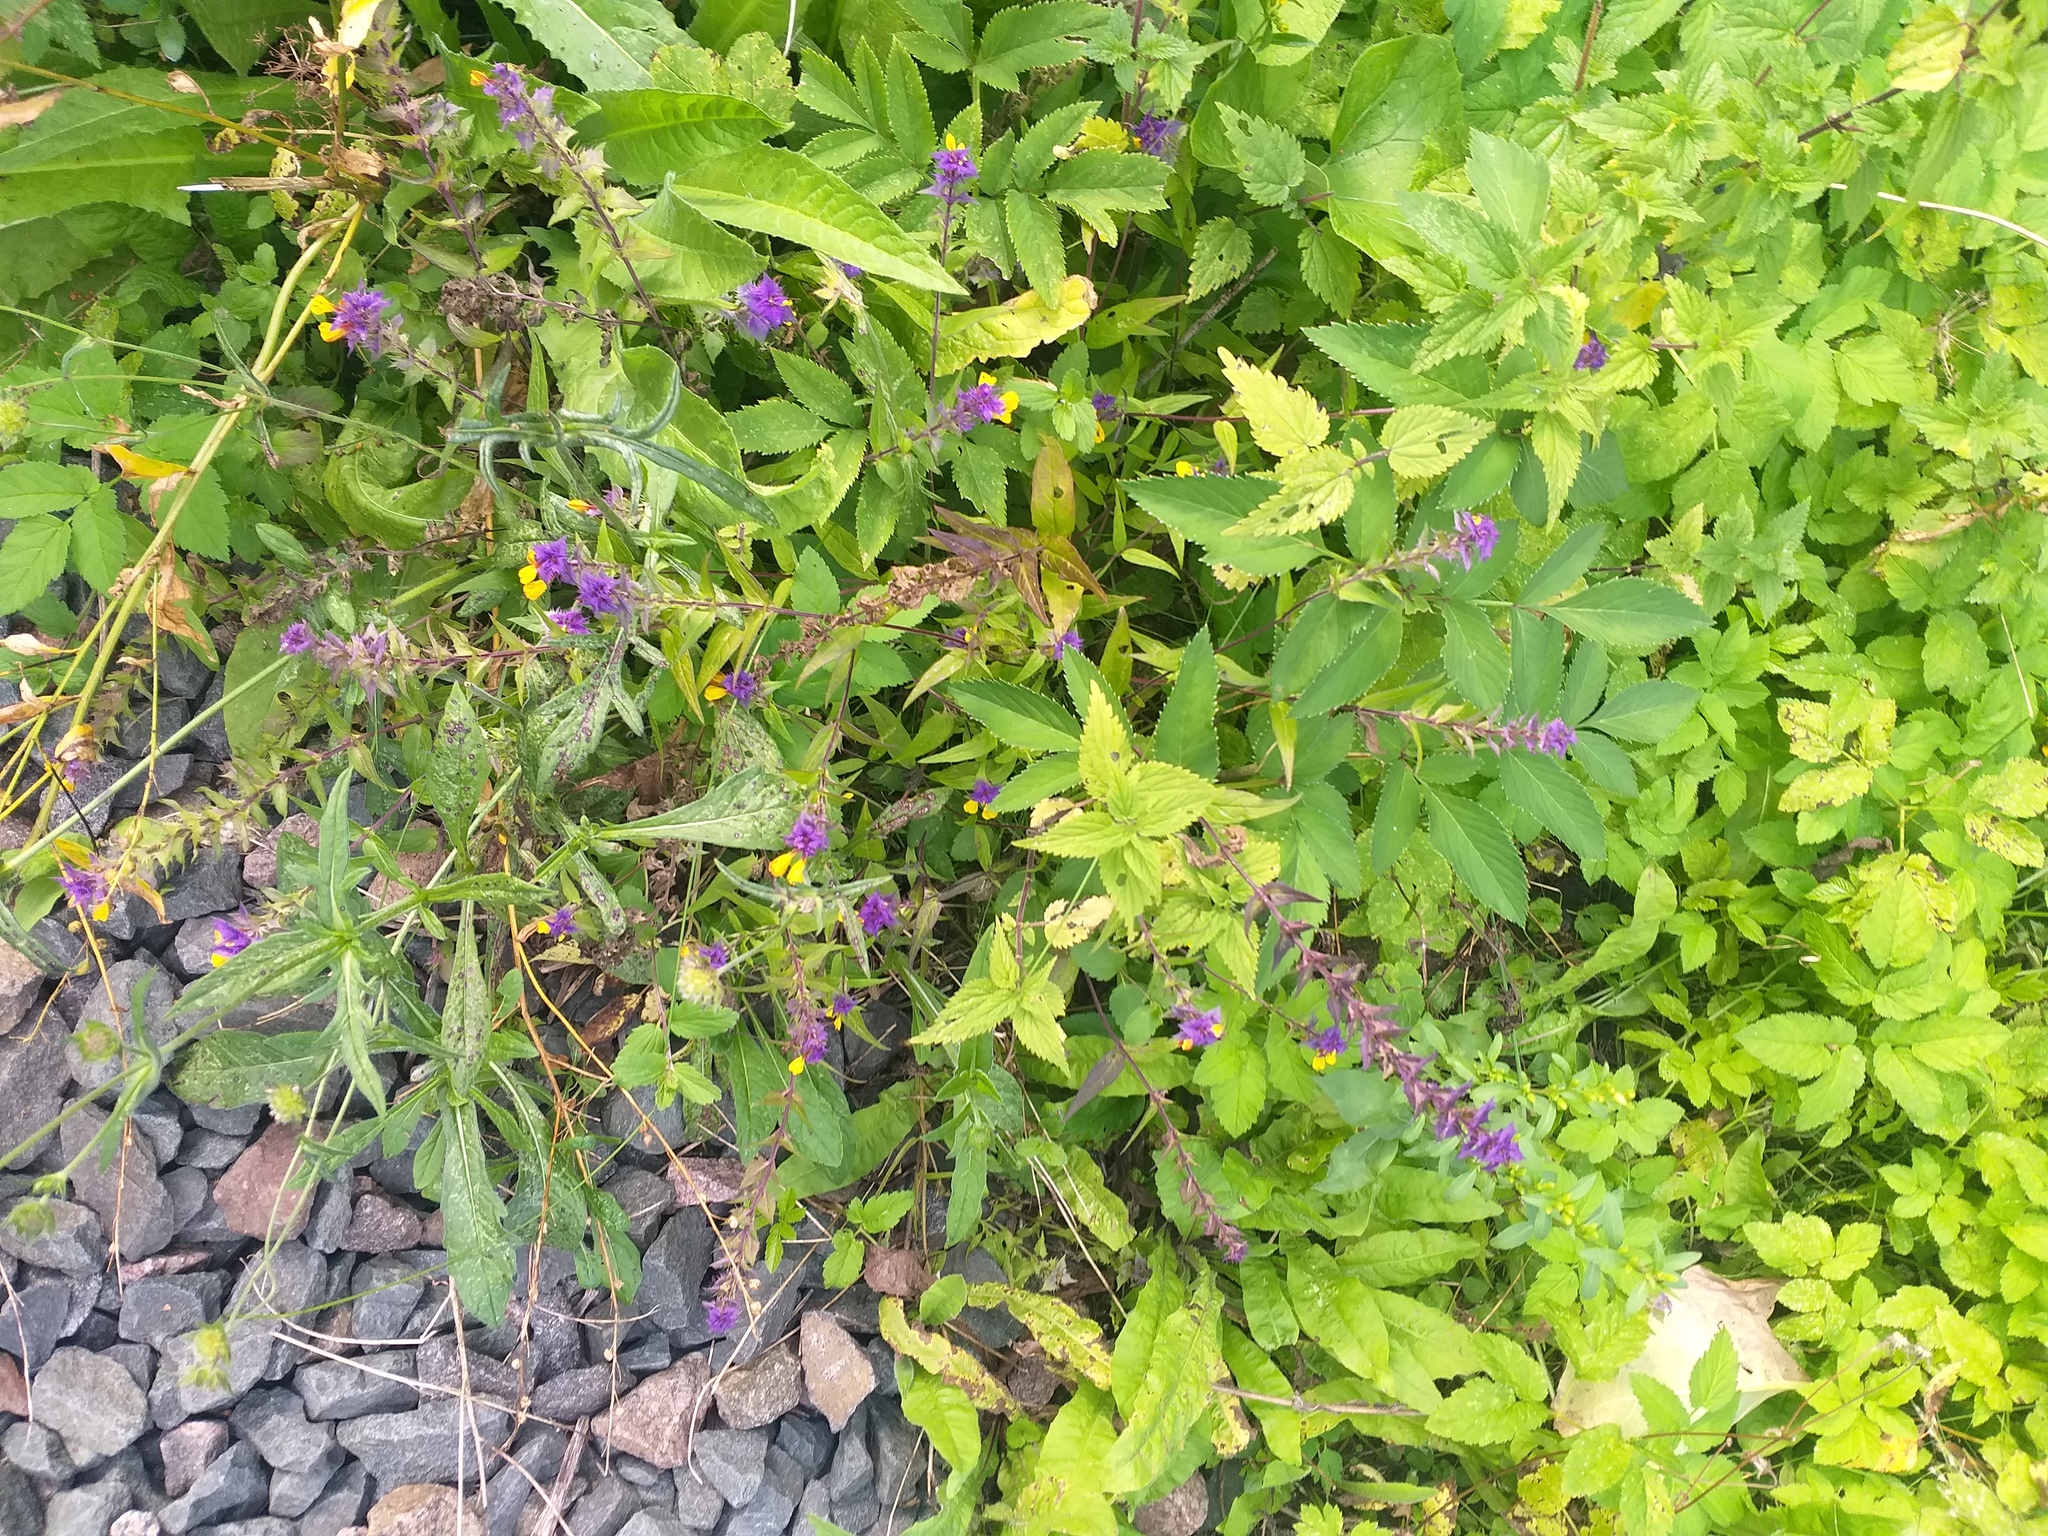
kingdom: Plantae
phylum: Tracheophyta
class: Magnoliopsida
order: Lamiales
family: Orobanchaceae
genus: Melampyrum
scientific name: Melampyrum nemorosum
